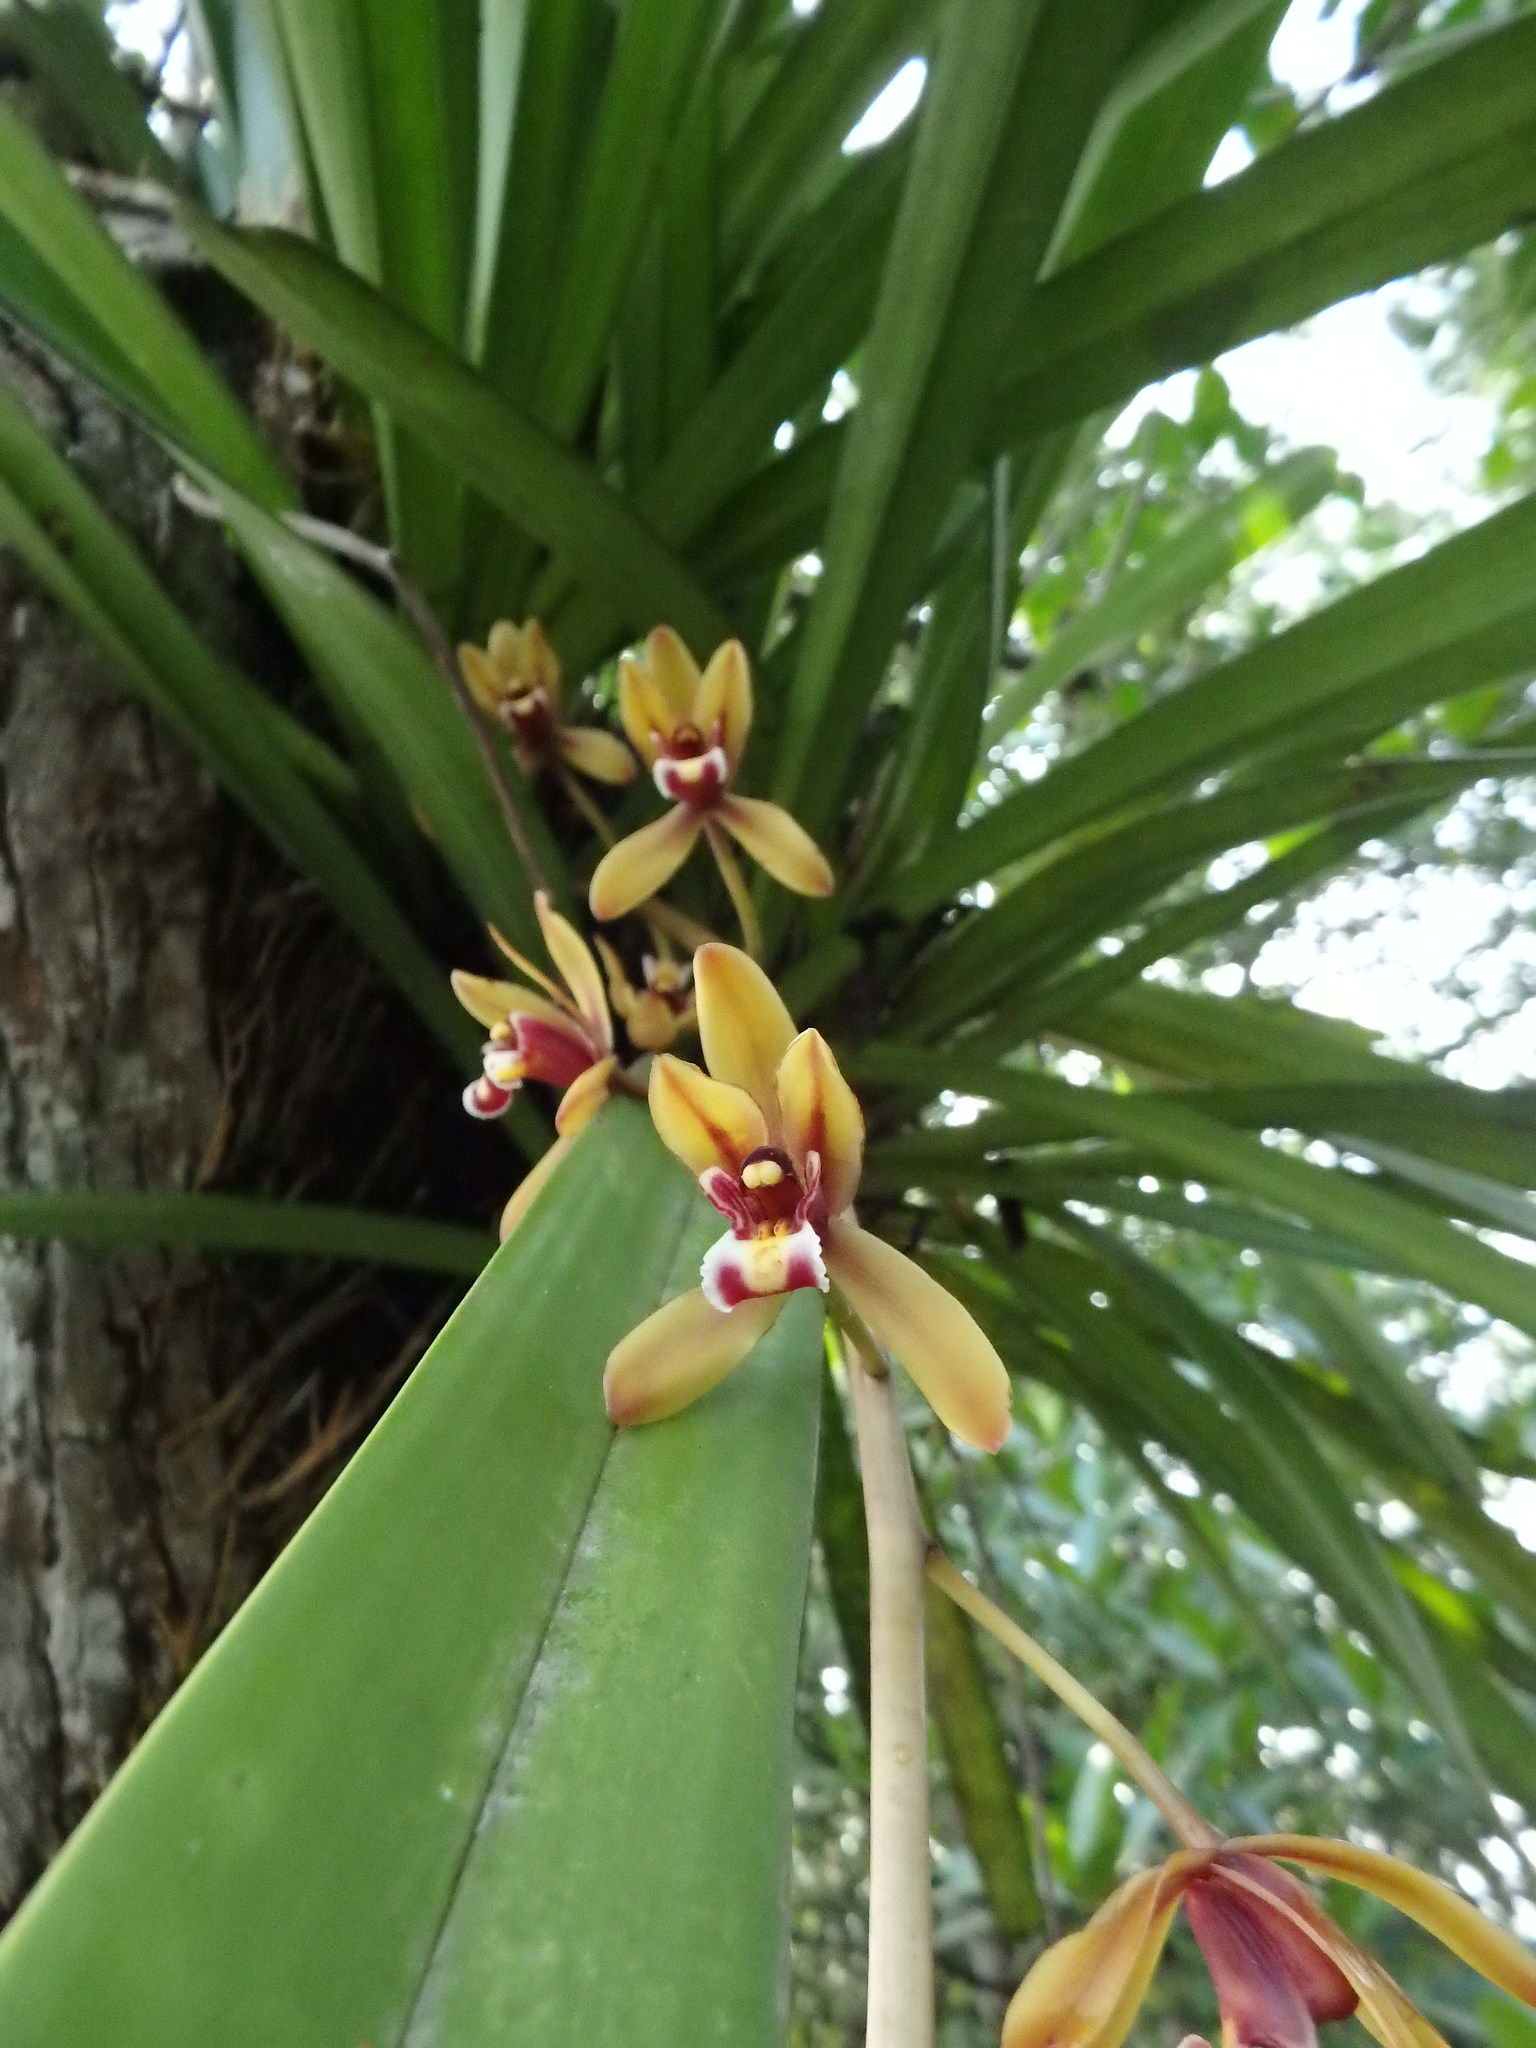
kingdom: Plantae
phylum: Tracheophyta
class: Liliopsida
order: Asparagales
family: Orchidaceae
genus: Cymbidium
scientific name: Cymbidium finlaysonianum
